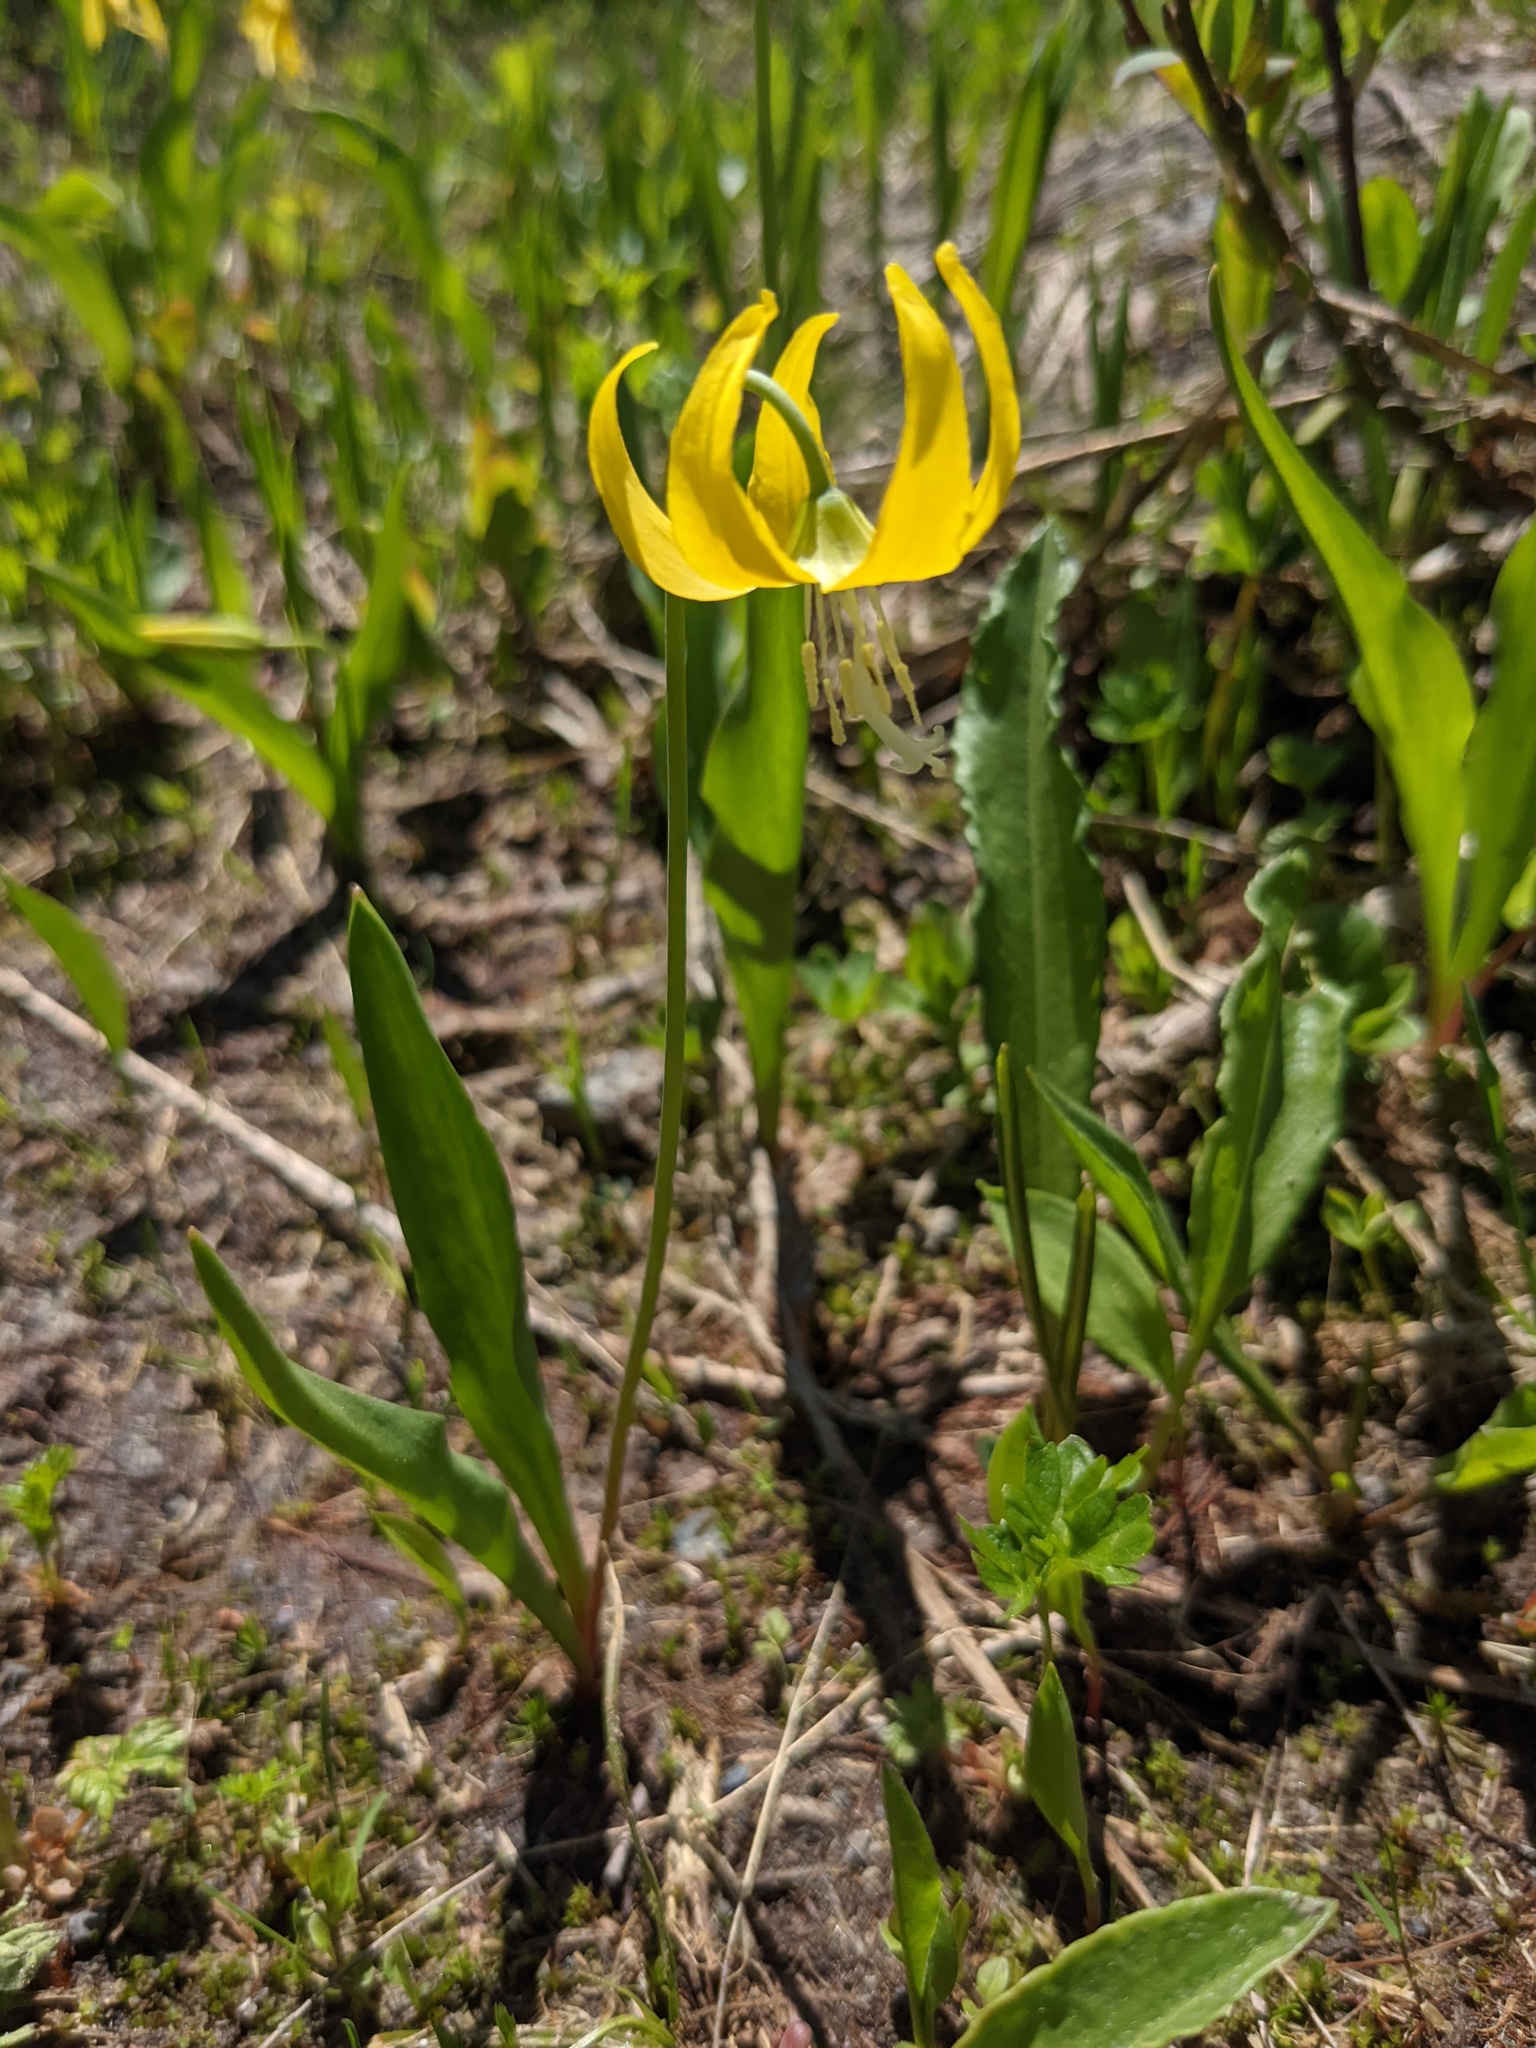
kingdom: Plantae
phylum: Tracheophyta
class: Liliopsida
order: Liliales
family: Liliaceae
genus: Erythronium
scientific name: Erythronium grandiflorum
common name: Avalanche-lily
